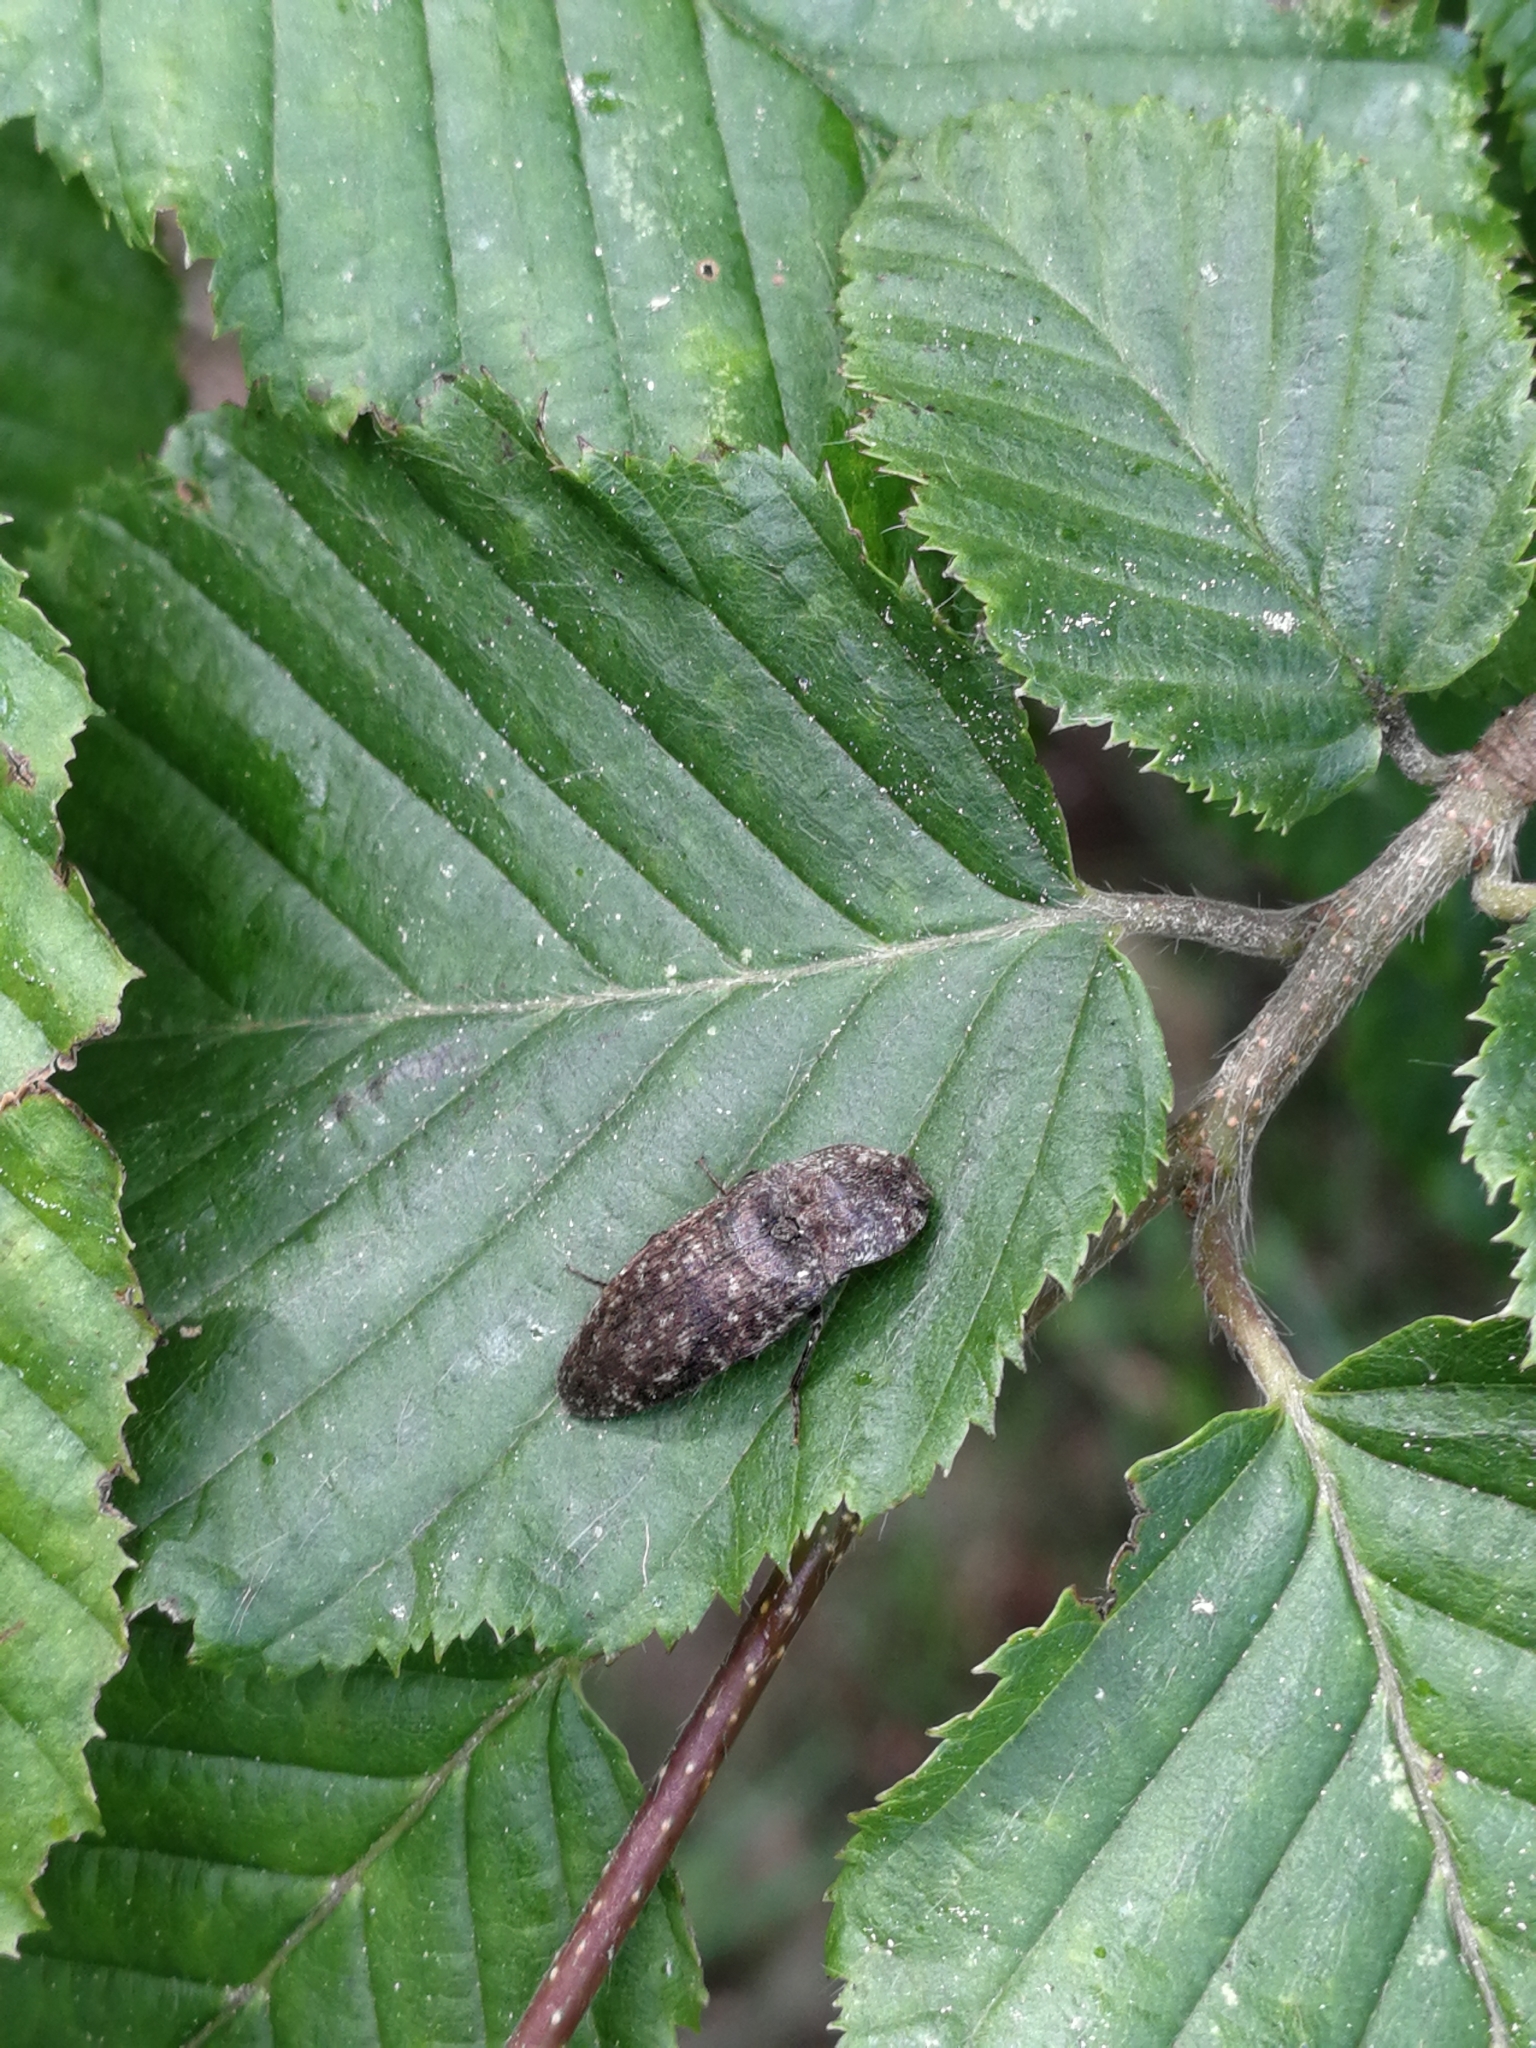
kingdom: Animalia
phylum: Arthropoda
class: Insecta
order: Coleoptera
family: Elateridae
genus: Agrypnus
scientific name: Agrypnus murinus
